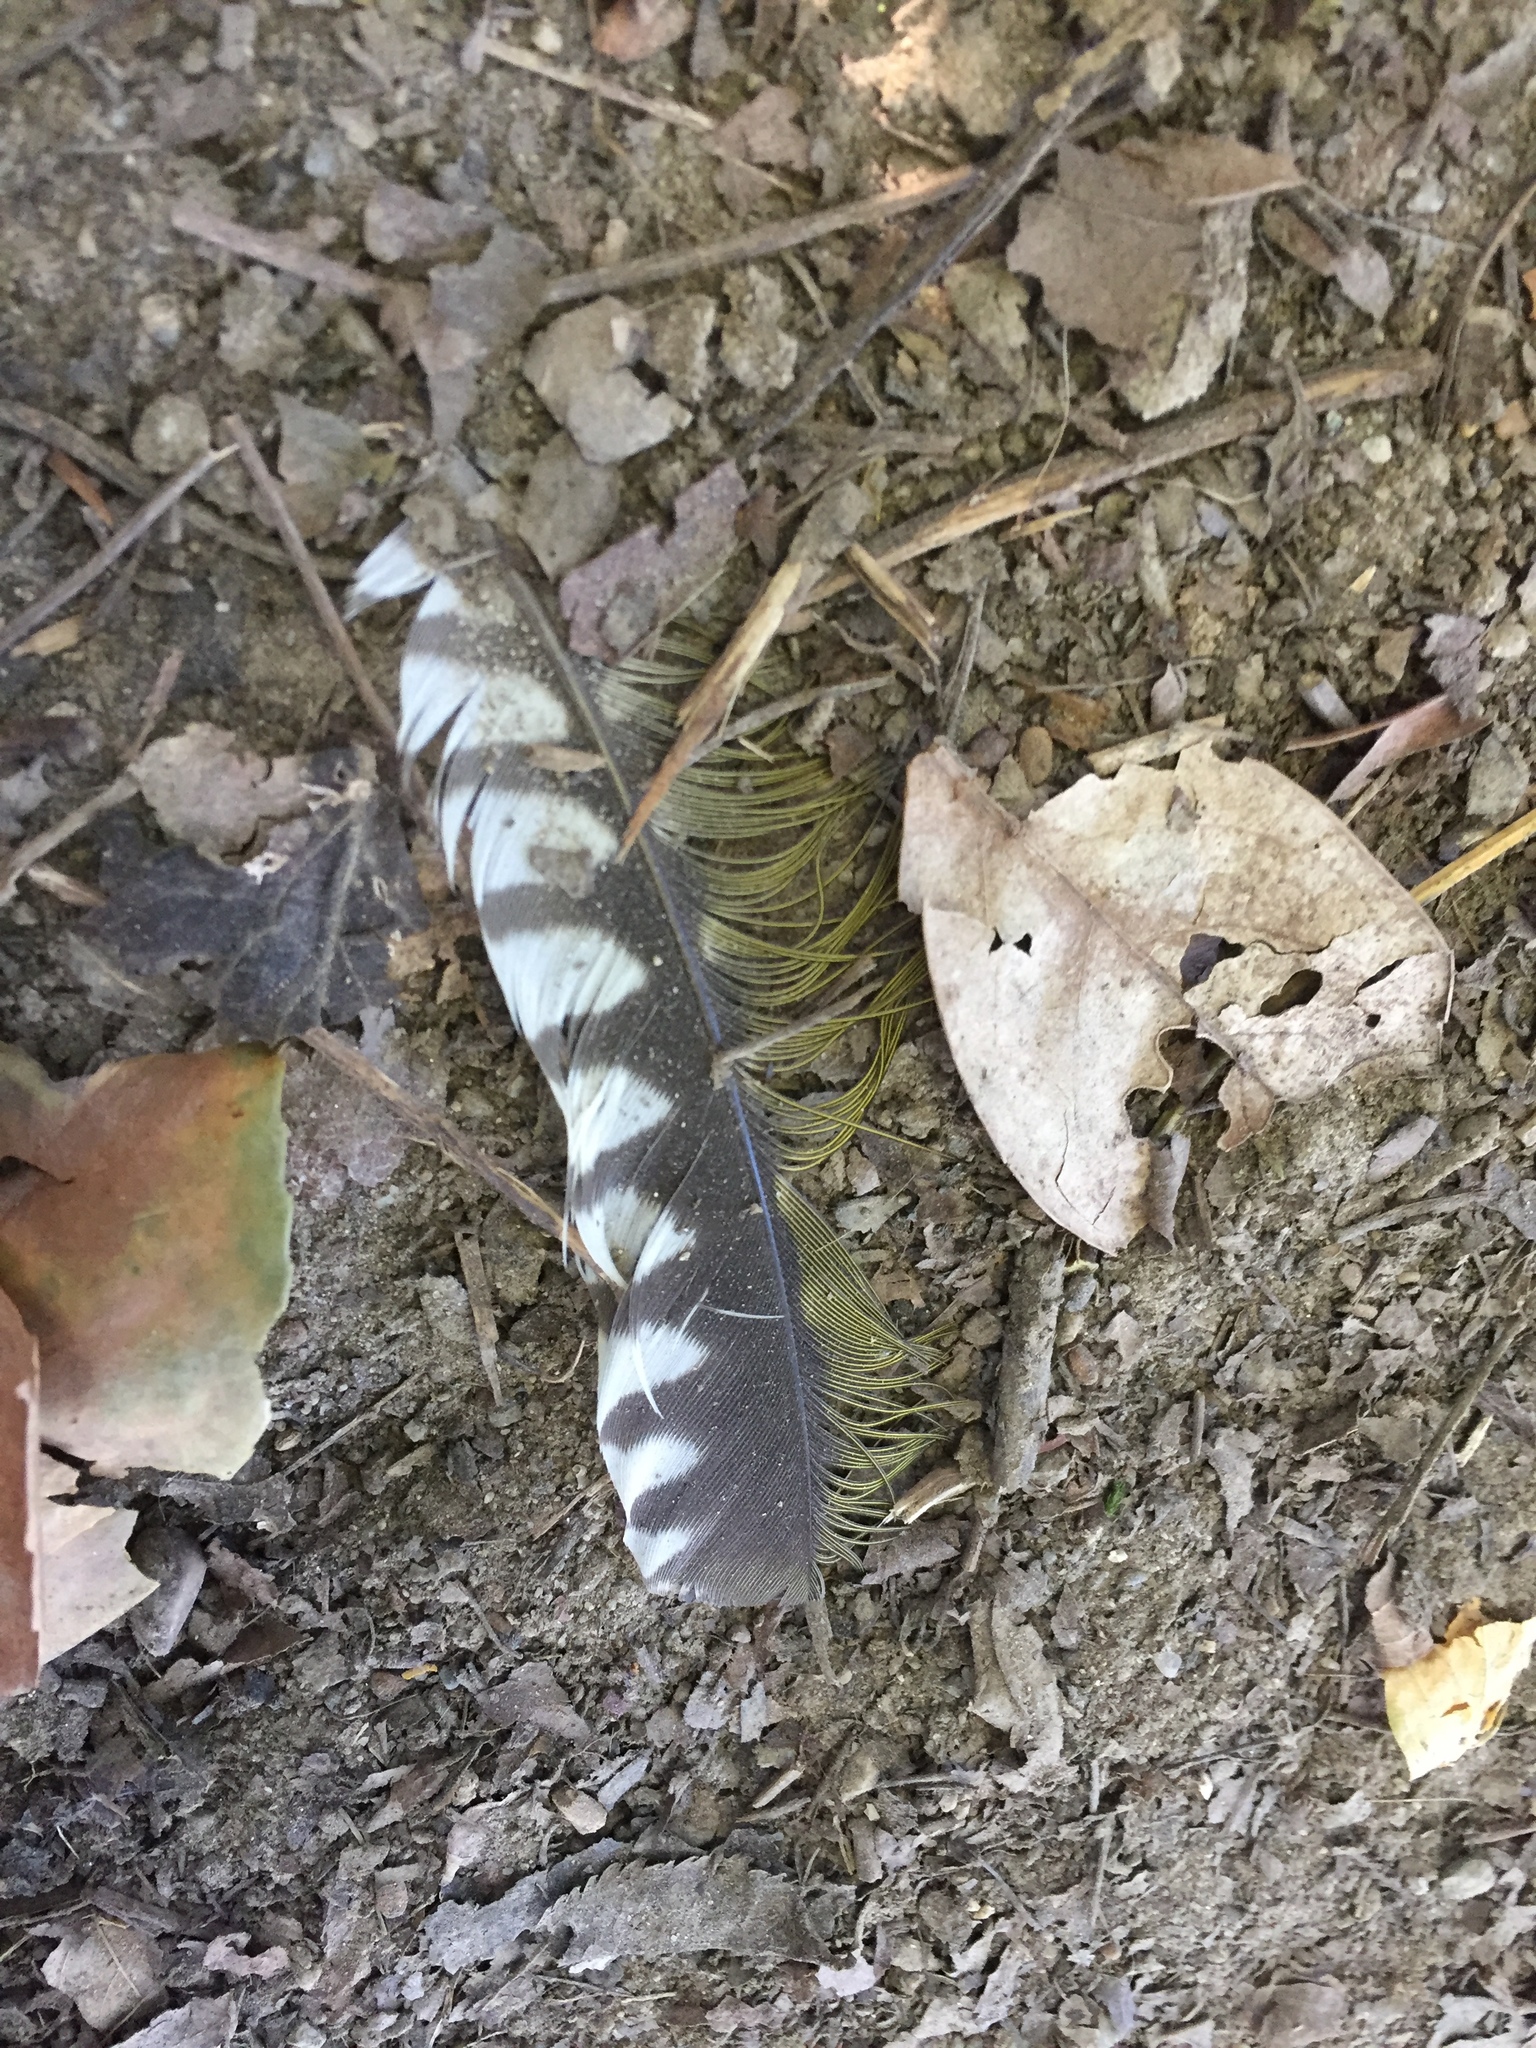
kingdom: Animalia
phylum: Chordata
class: Aves
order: Piciformes
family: Picidae
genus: Picus
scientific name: Picus viridis
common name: European green woodpecker
